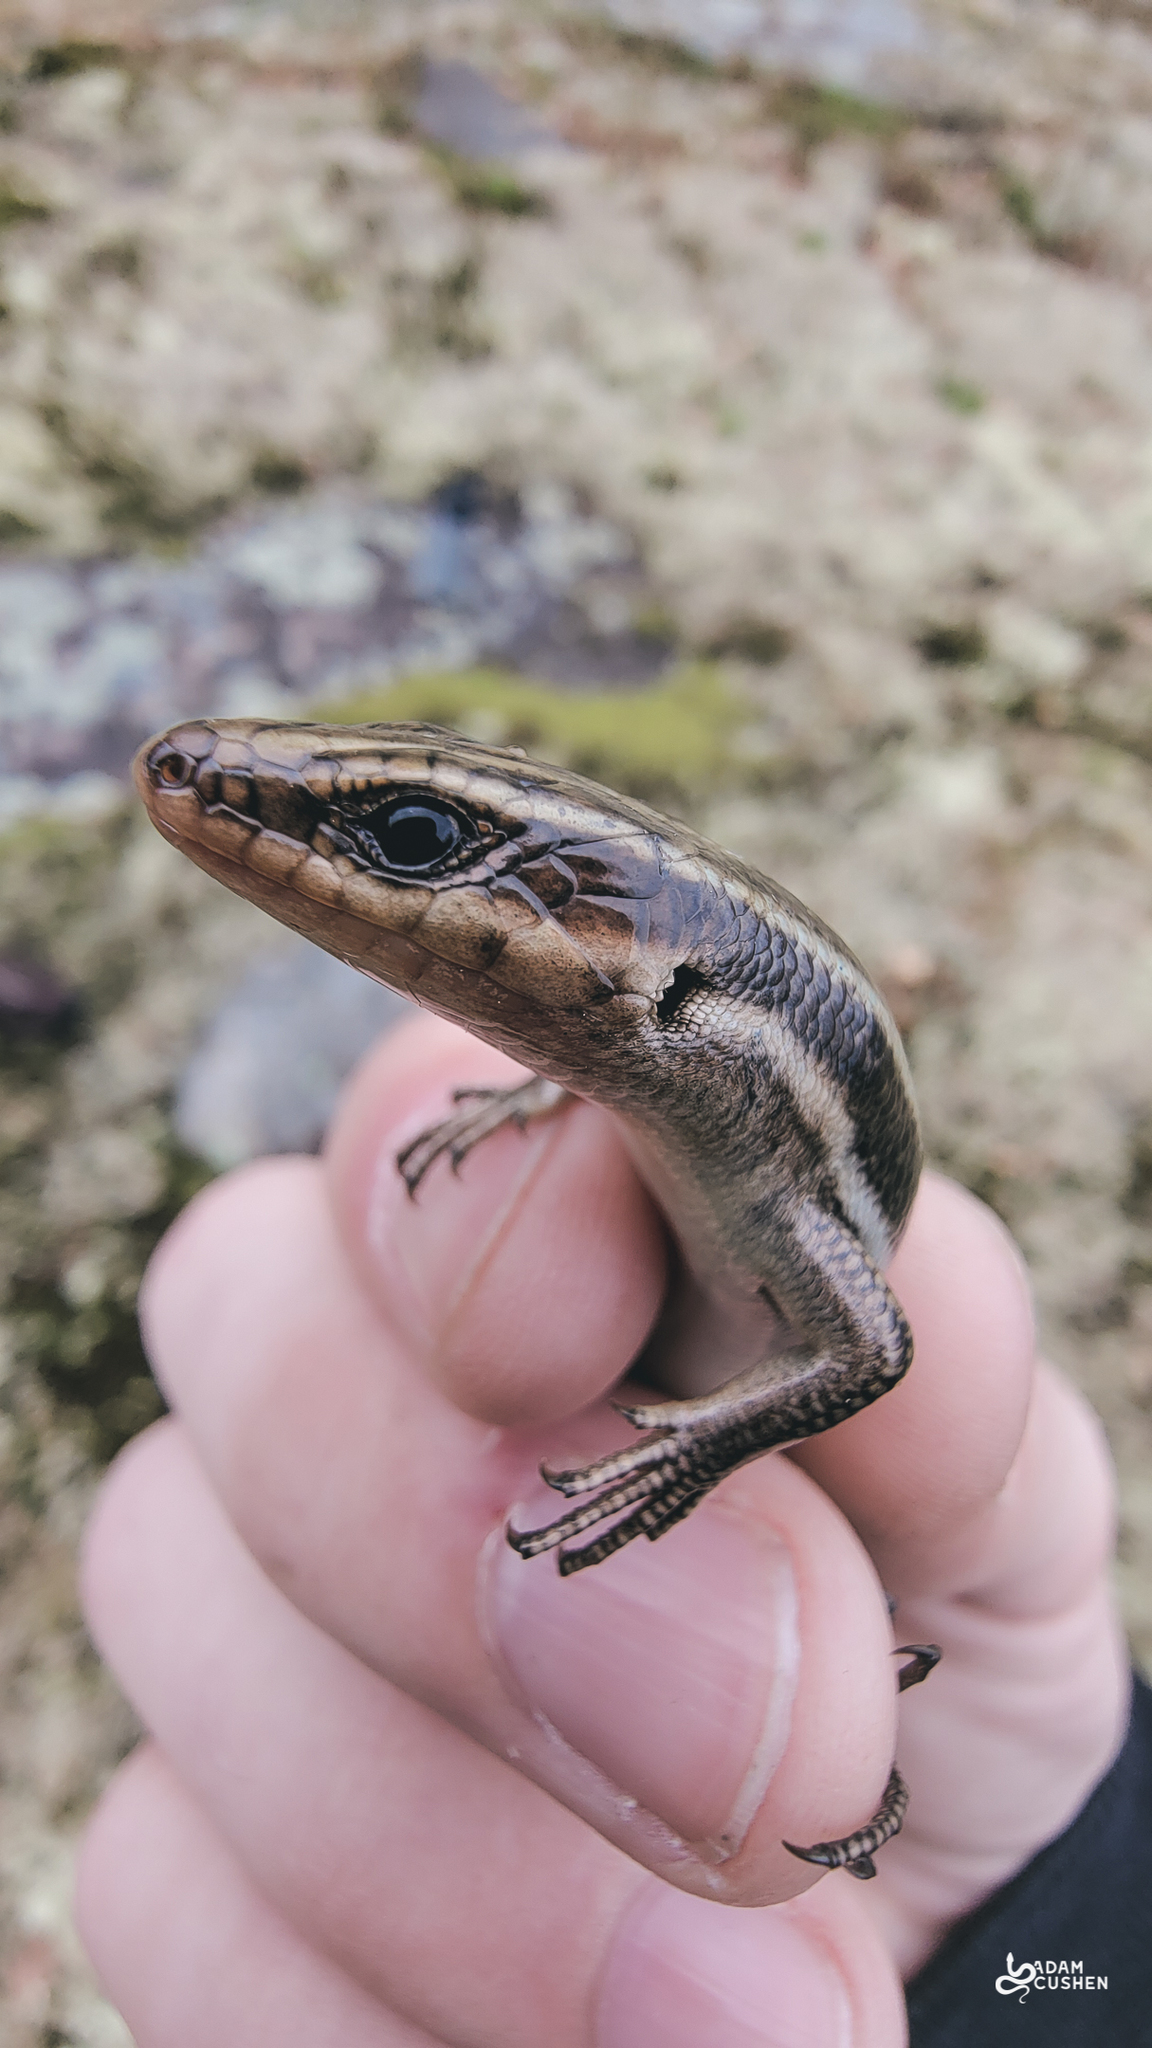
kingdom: Animalia
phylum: Chordata
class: Squamata
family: Scincidae
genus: Plestiodon
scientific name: Plestiodon fasciatus
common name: Five-lined skink
